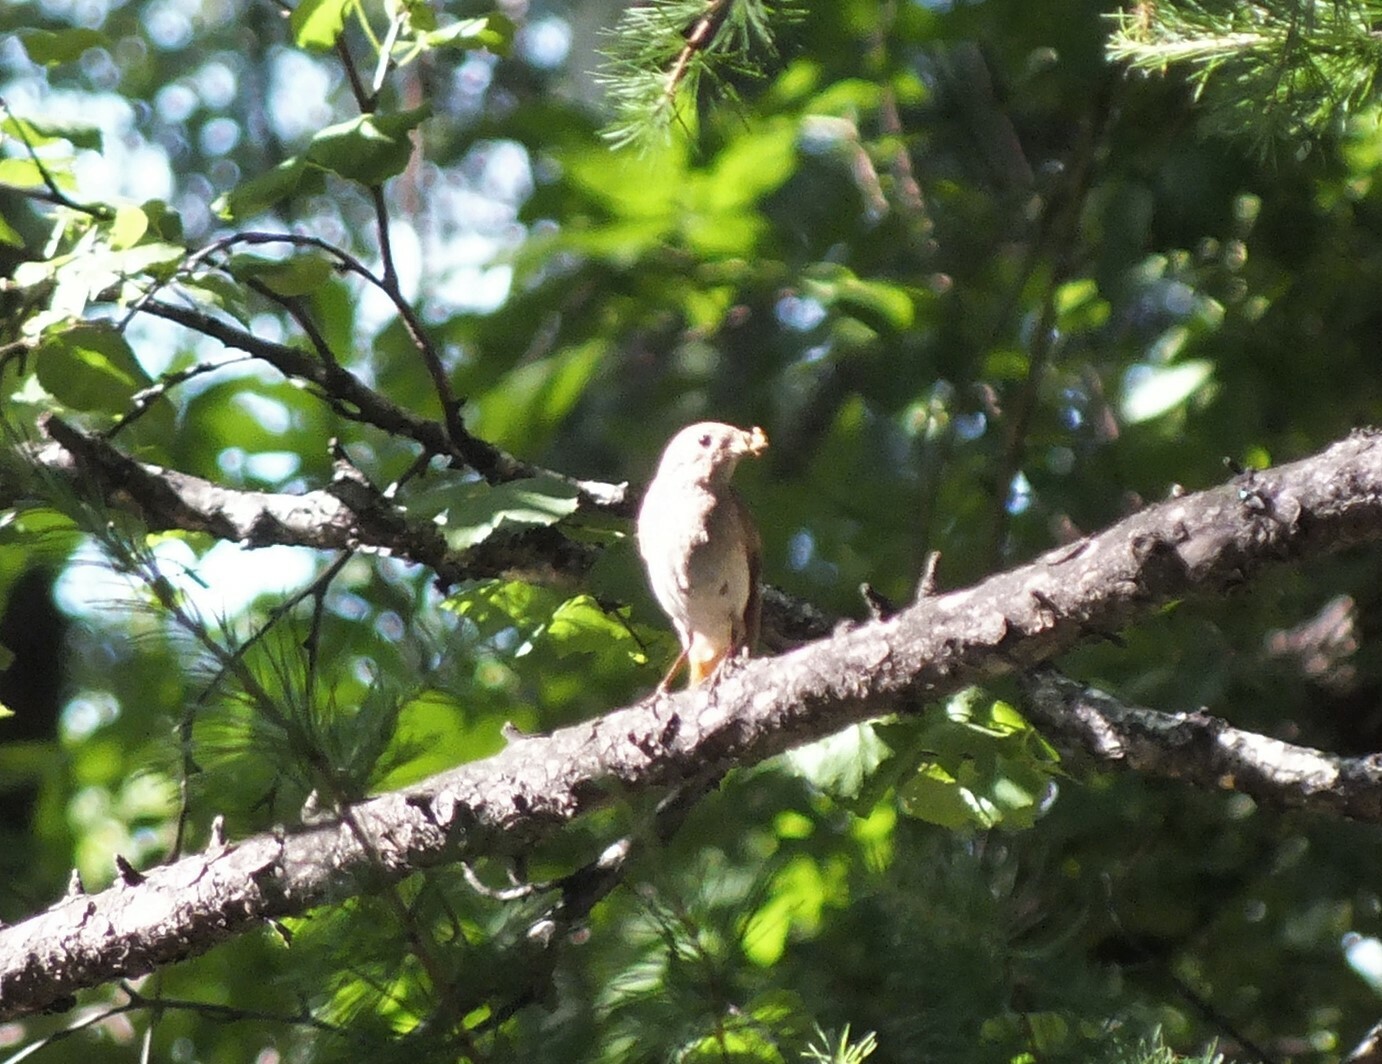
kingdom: Animalia
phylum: Chordata
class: Aves
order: Passeriformes
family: Muscicapidae
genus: Phoenicurus
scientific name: Phoenicurus phoenicurus
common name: Common redstart
